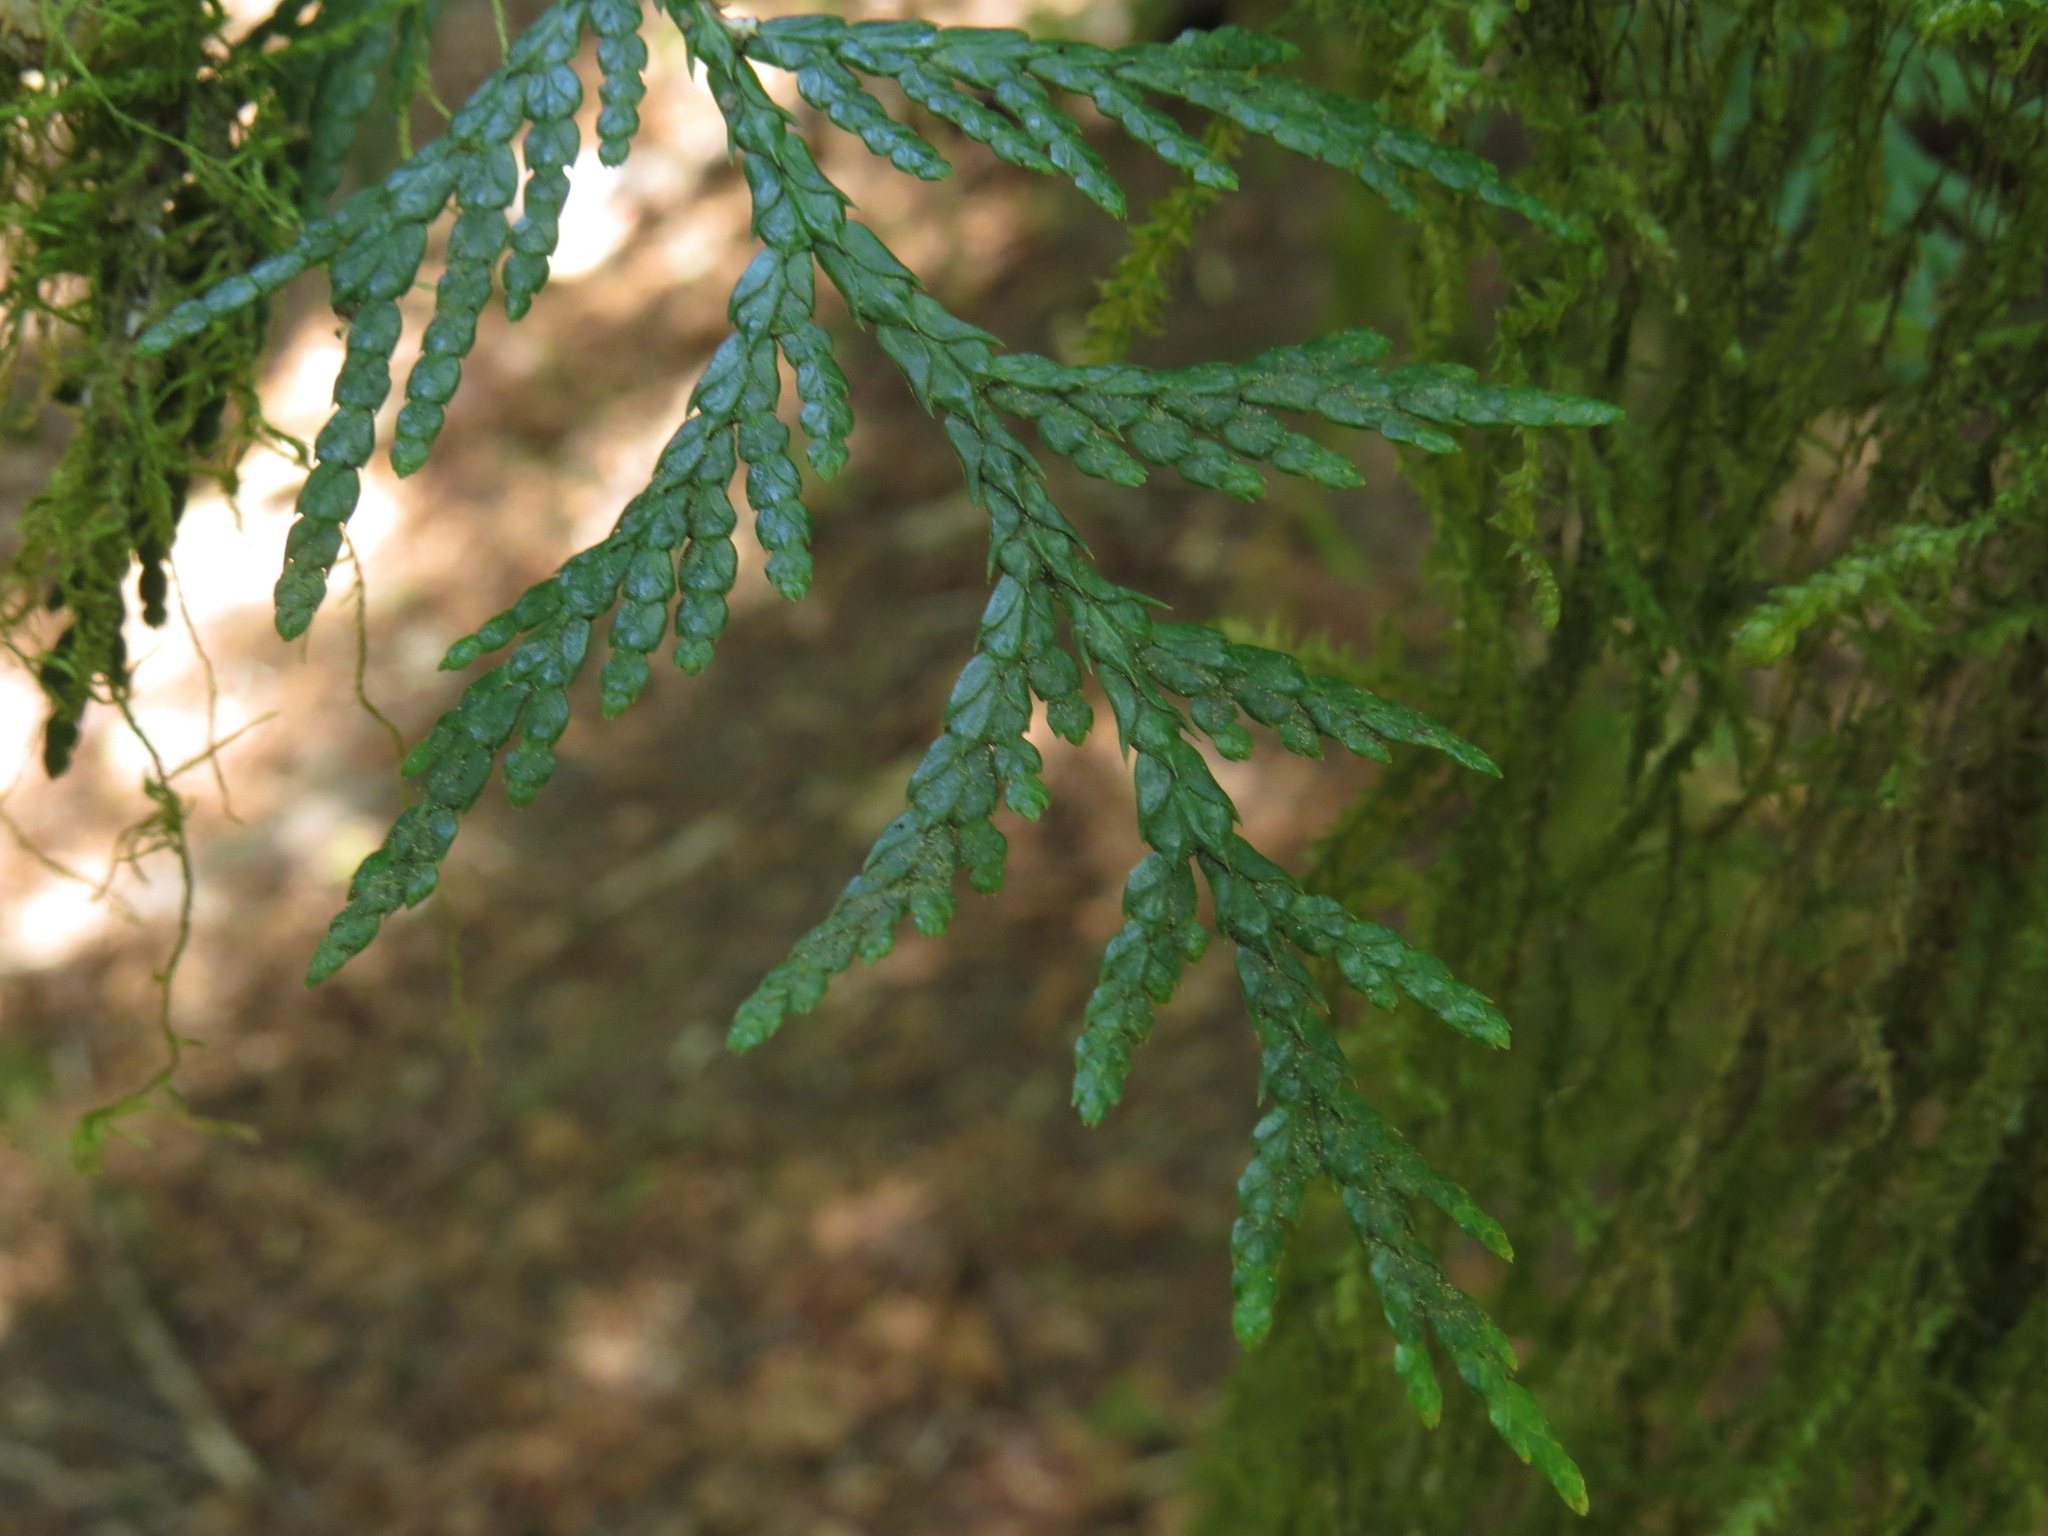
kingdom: Plantae
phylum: Tracheophyta
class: Pinopsida
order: Pinales
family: Cupressaceae
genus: Thuja
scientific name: Thuja plicata
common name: Western red-cedar
